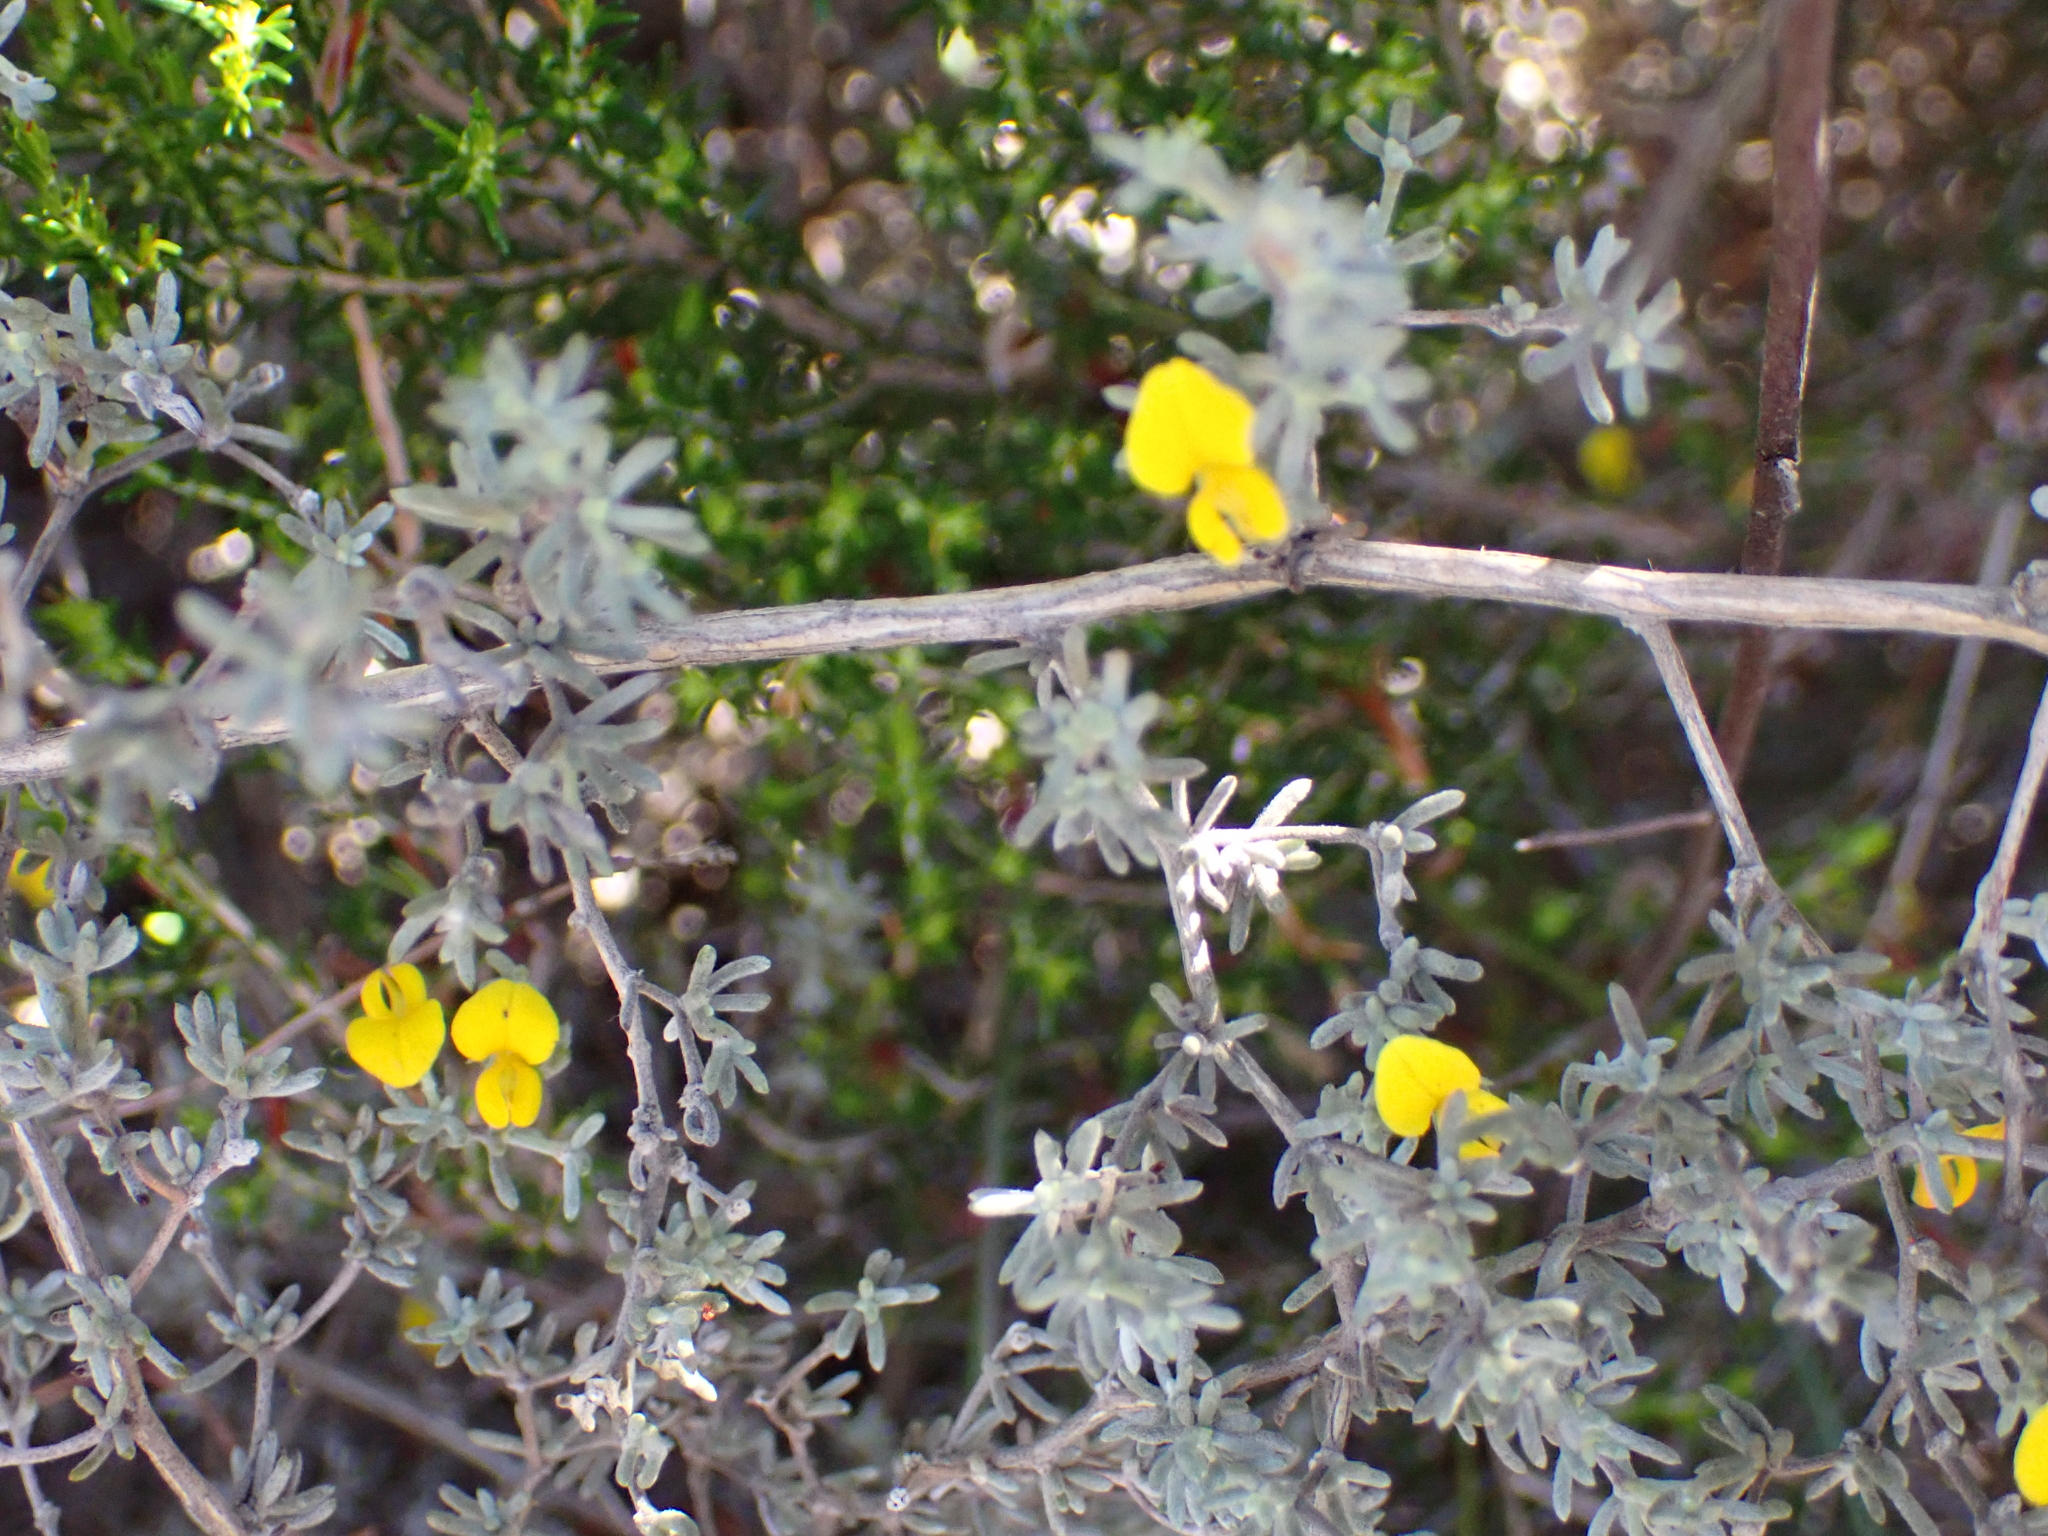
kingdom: Plantae
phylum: Tracheophyta
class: Magnoliopsida
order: Fabales
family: Fabaceae
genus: Aspalathus
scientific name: Aspalathus digitifolia
